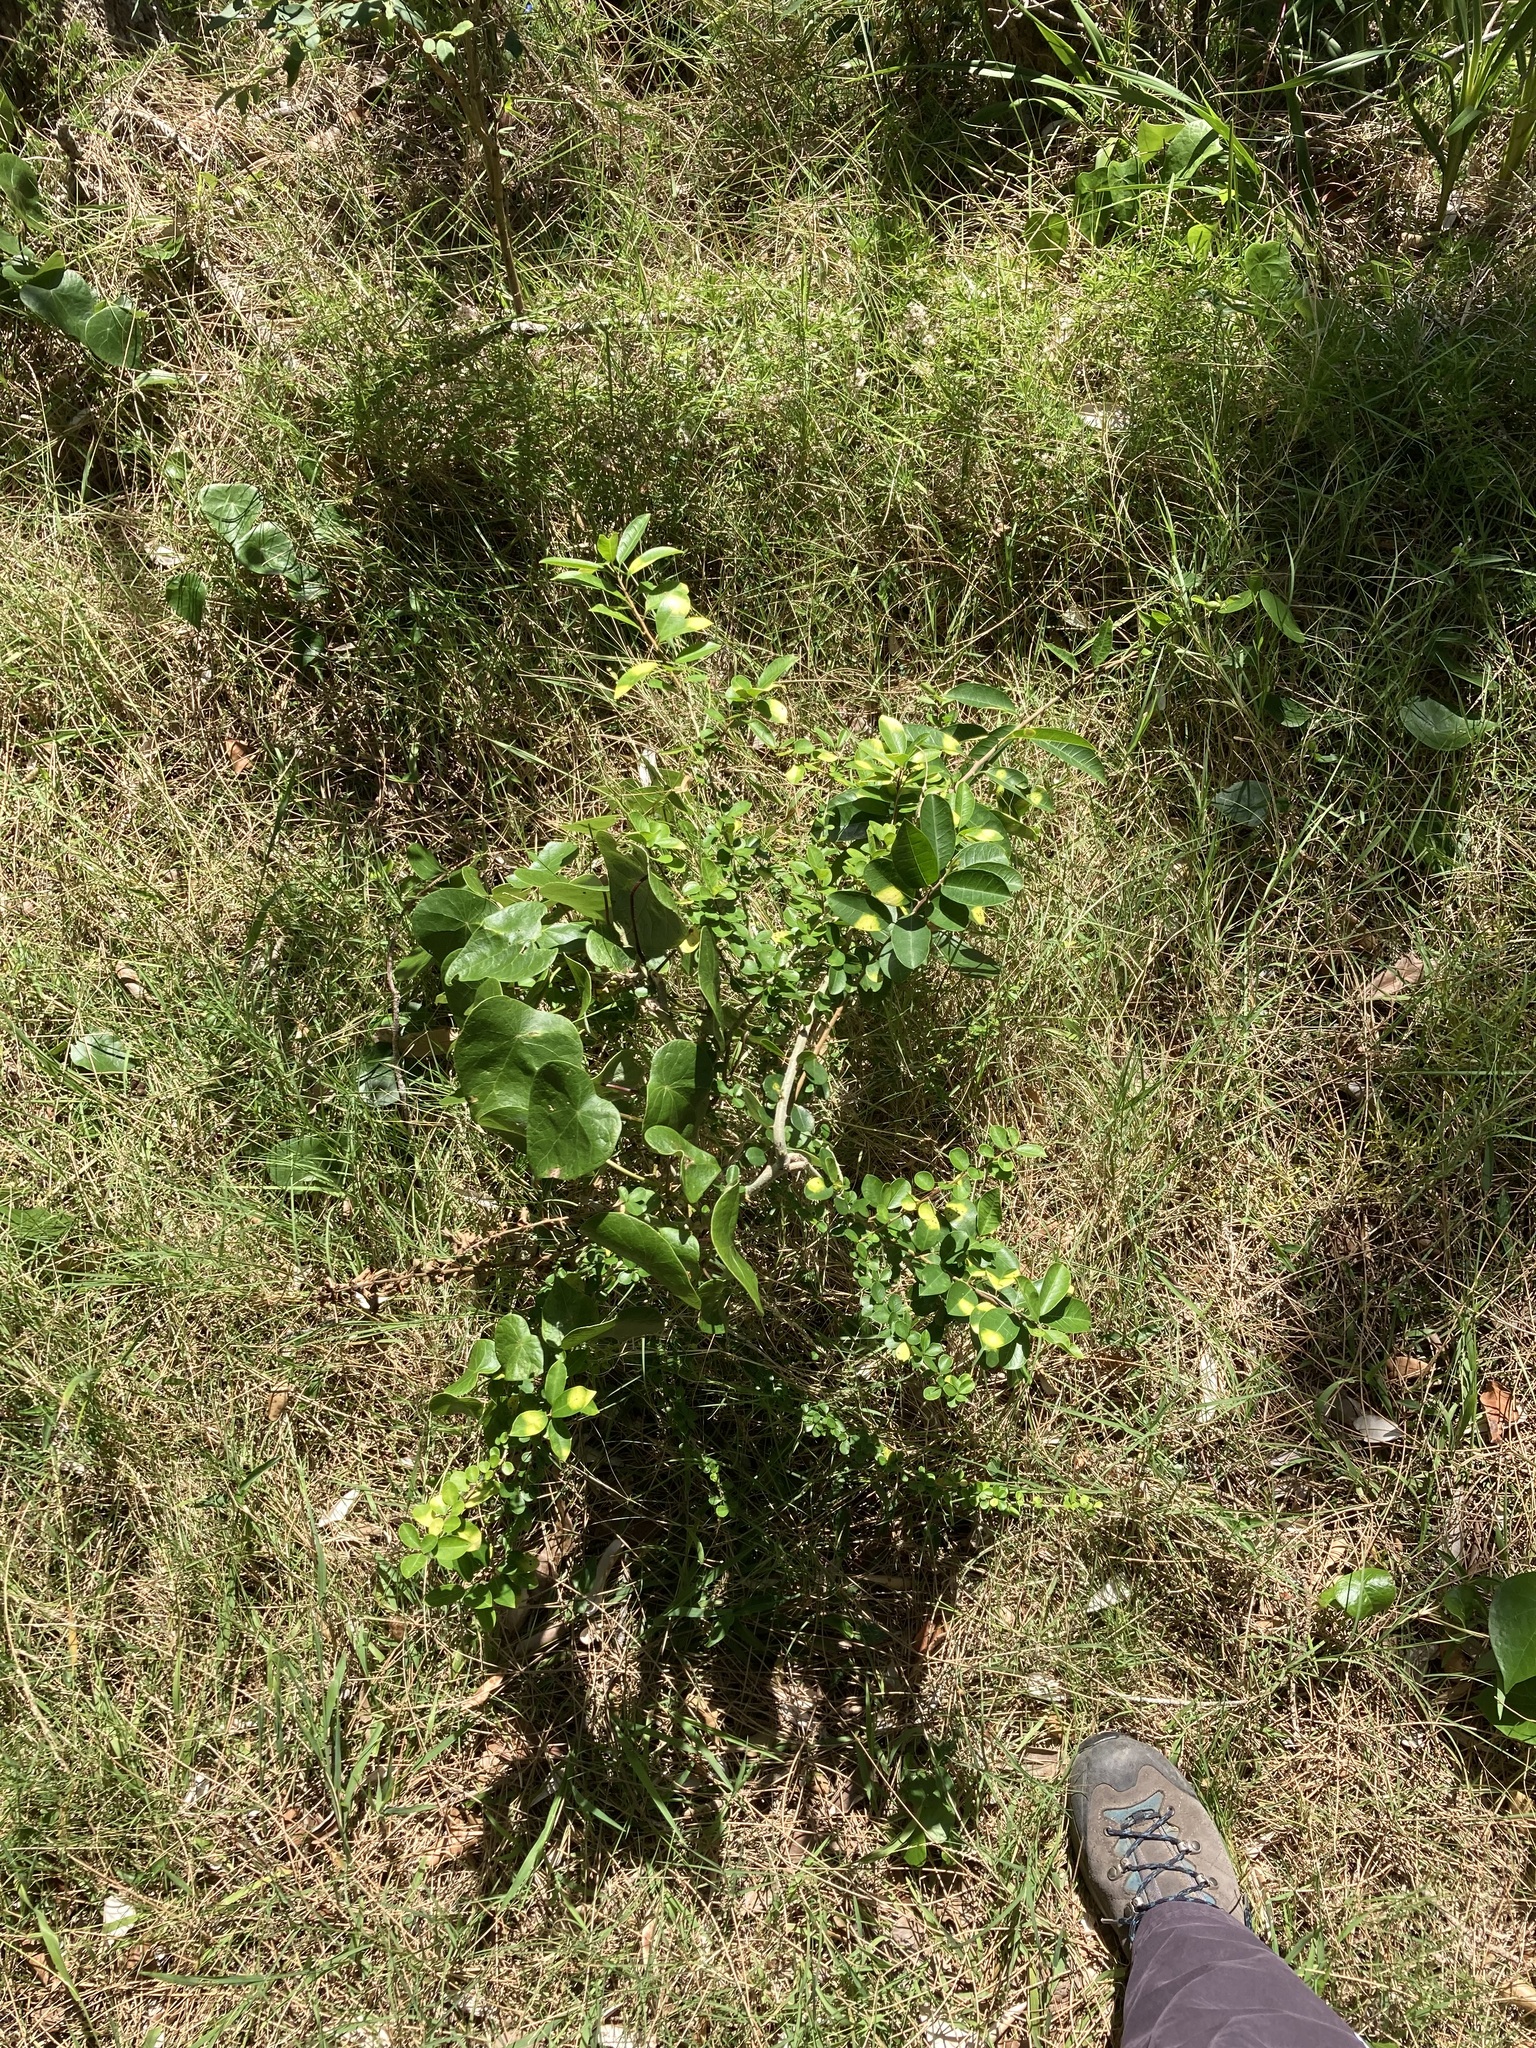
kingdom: Plantae
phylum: Tracheophyta
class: Magnoliopsida
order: Rosales
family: Moraceae
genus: Maclura
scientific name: Maclura cochinchinensis
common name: Cockspurthorn
